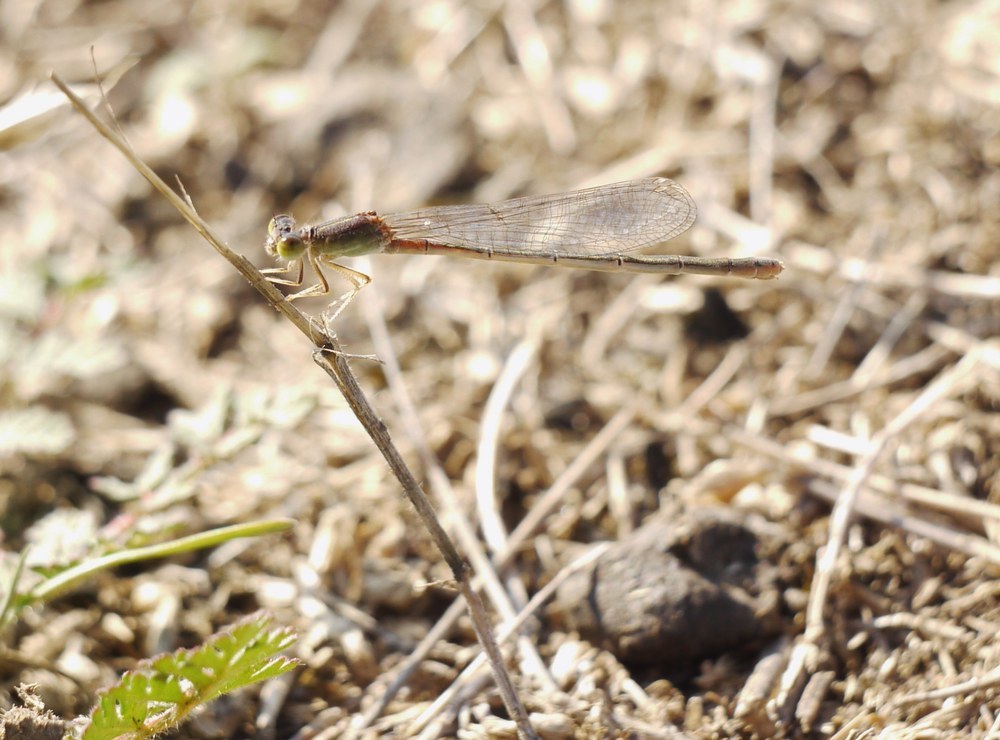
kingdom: Animalia
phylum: Arthropoda
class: Insecta
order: Odonata
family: Coenagrionidae
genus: Ischnura
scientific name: Ischnura pumilio
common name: Scarce blue-tailed damselfly
